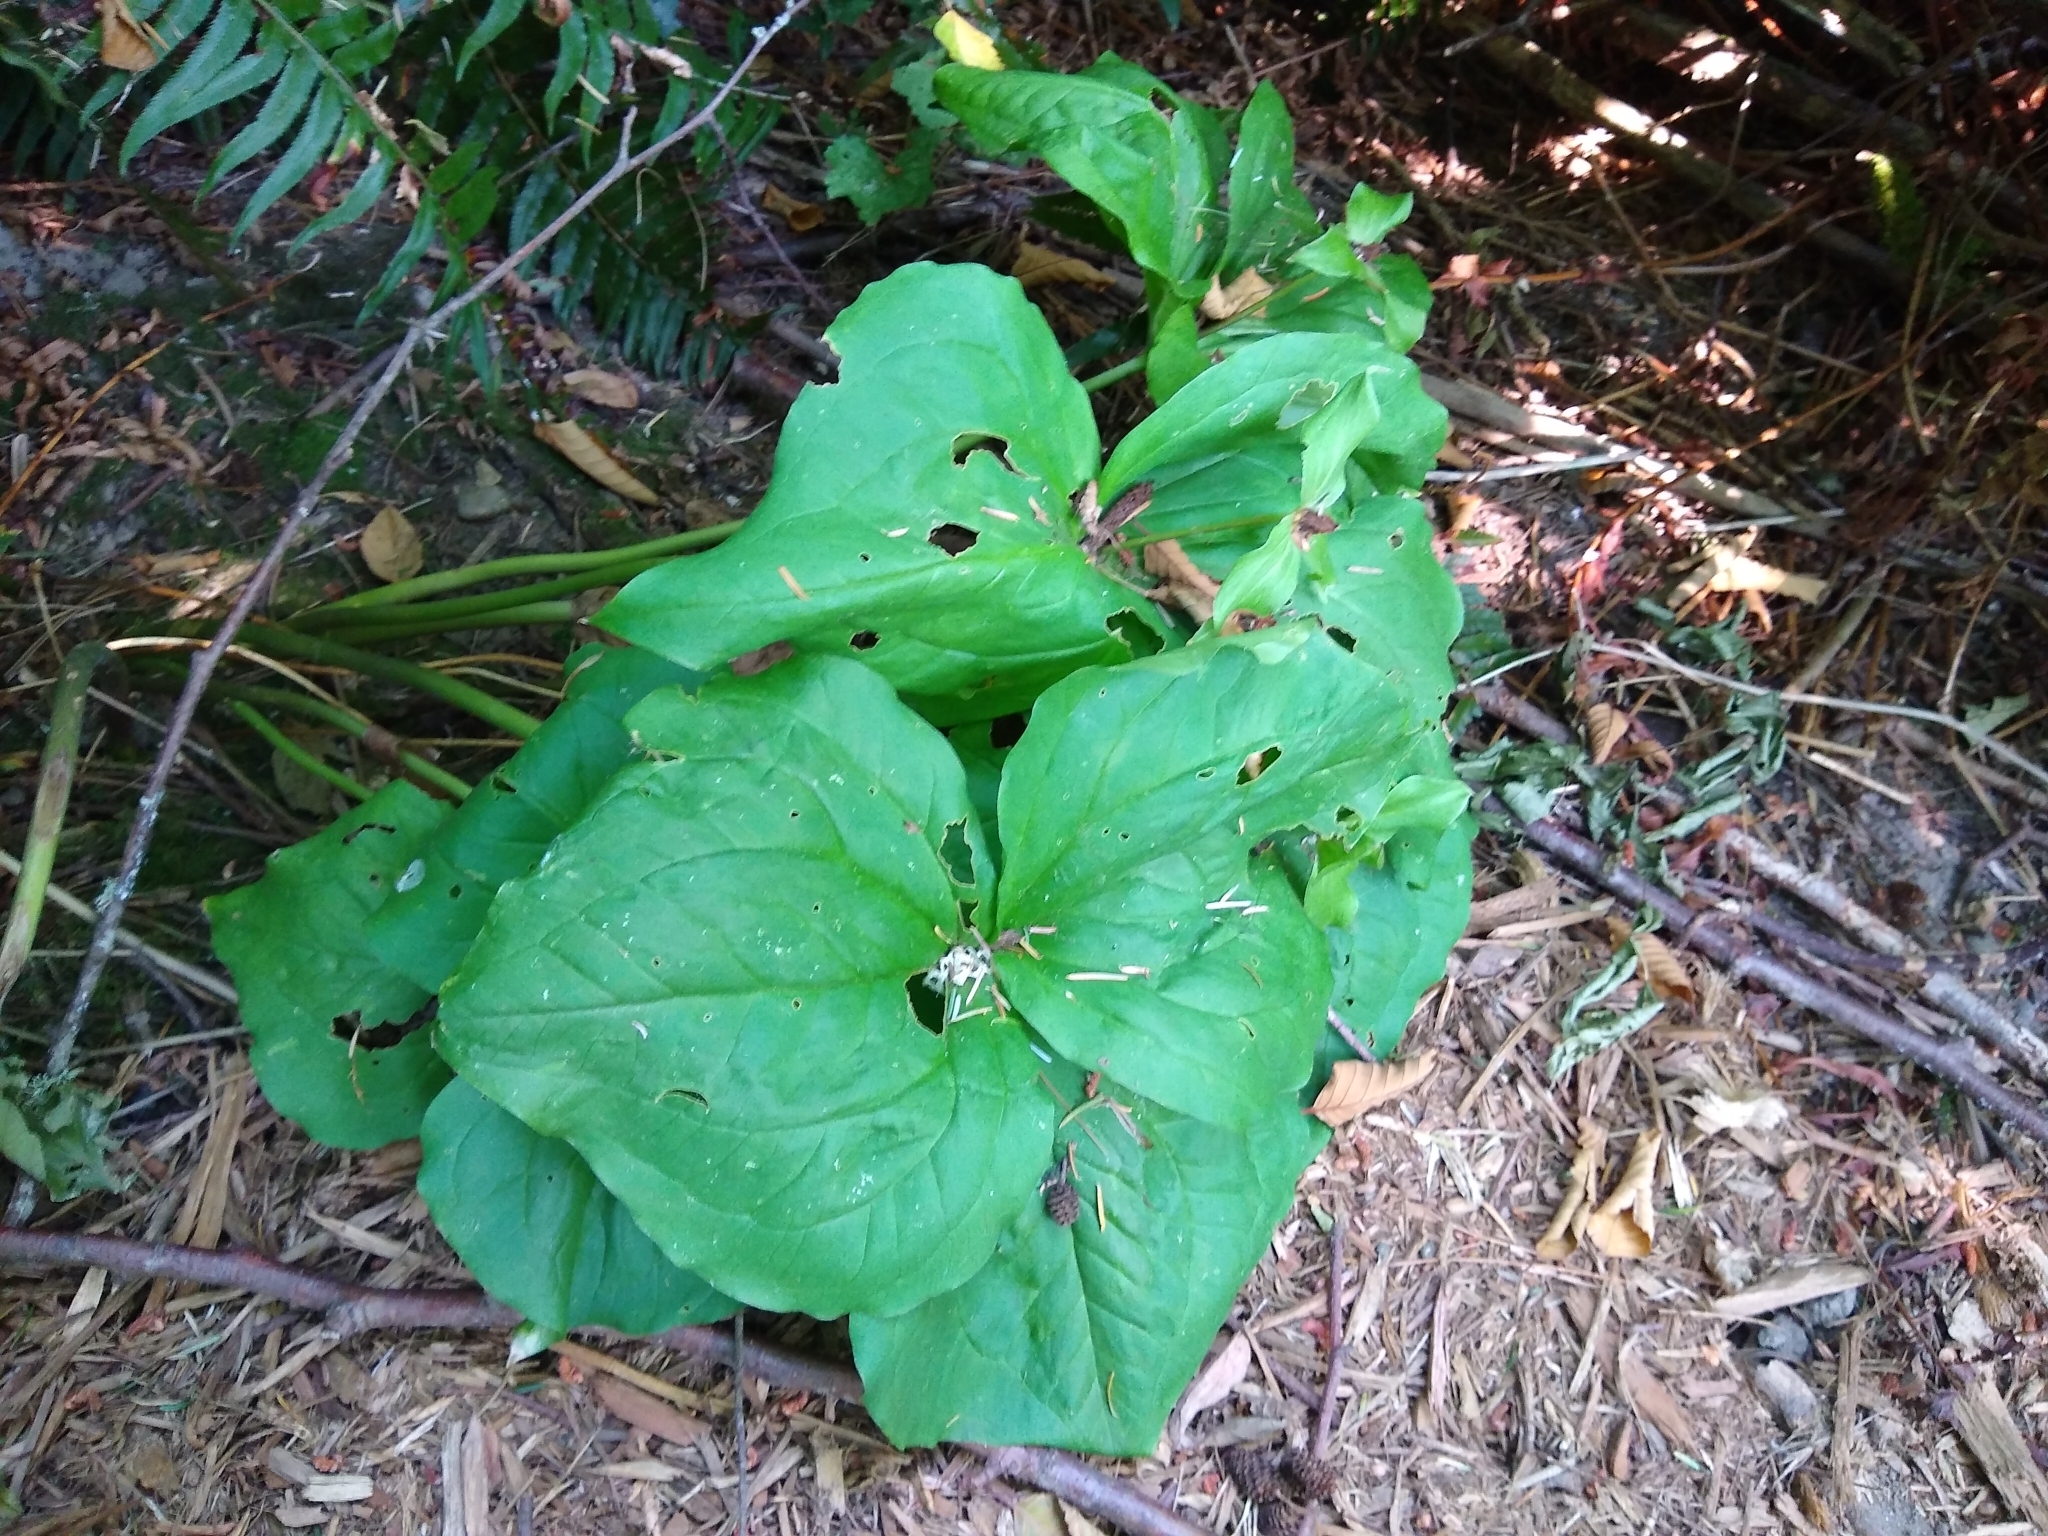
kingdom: Plantae
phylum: Tracheophyta
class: Liliopsida
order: Liliales
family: Melanthiaceae
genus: Trillium
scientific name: Trillium ovatum
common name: Pacific trillium
